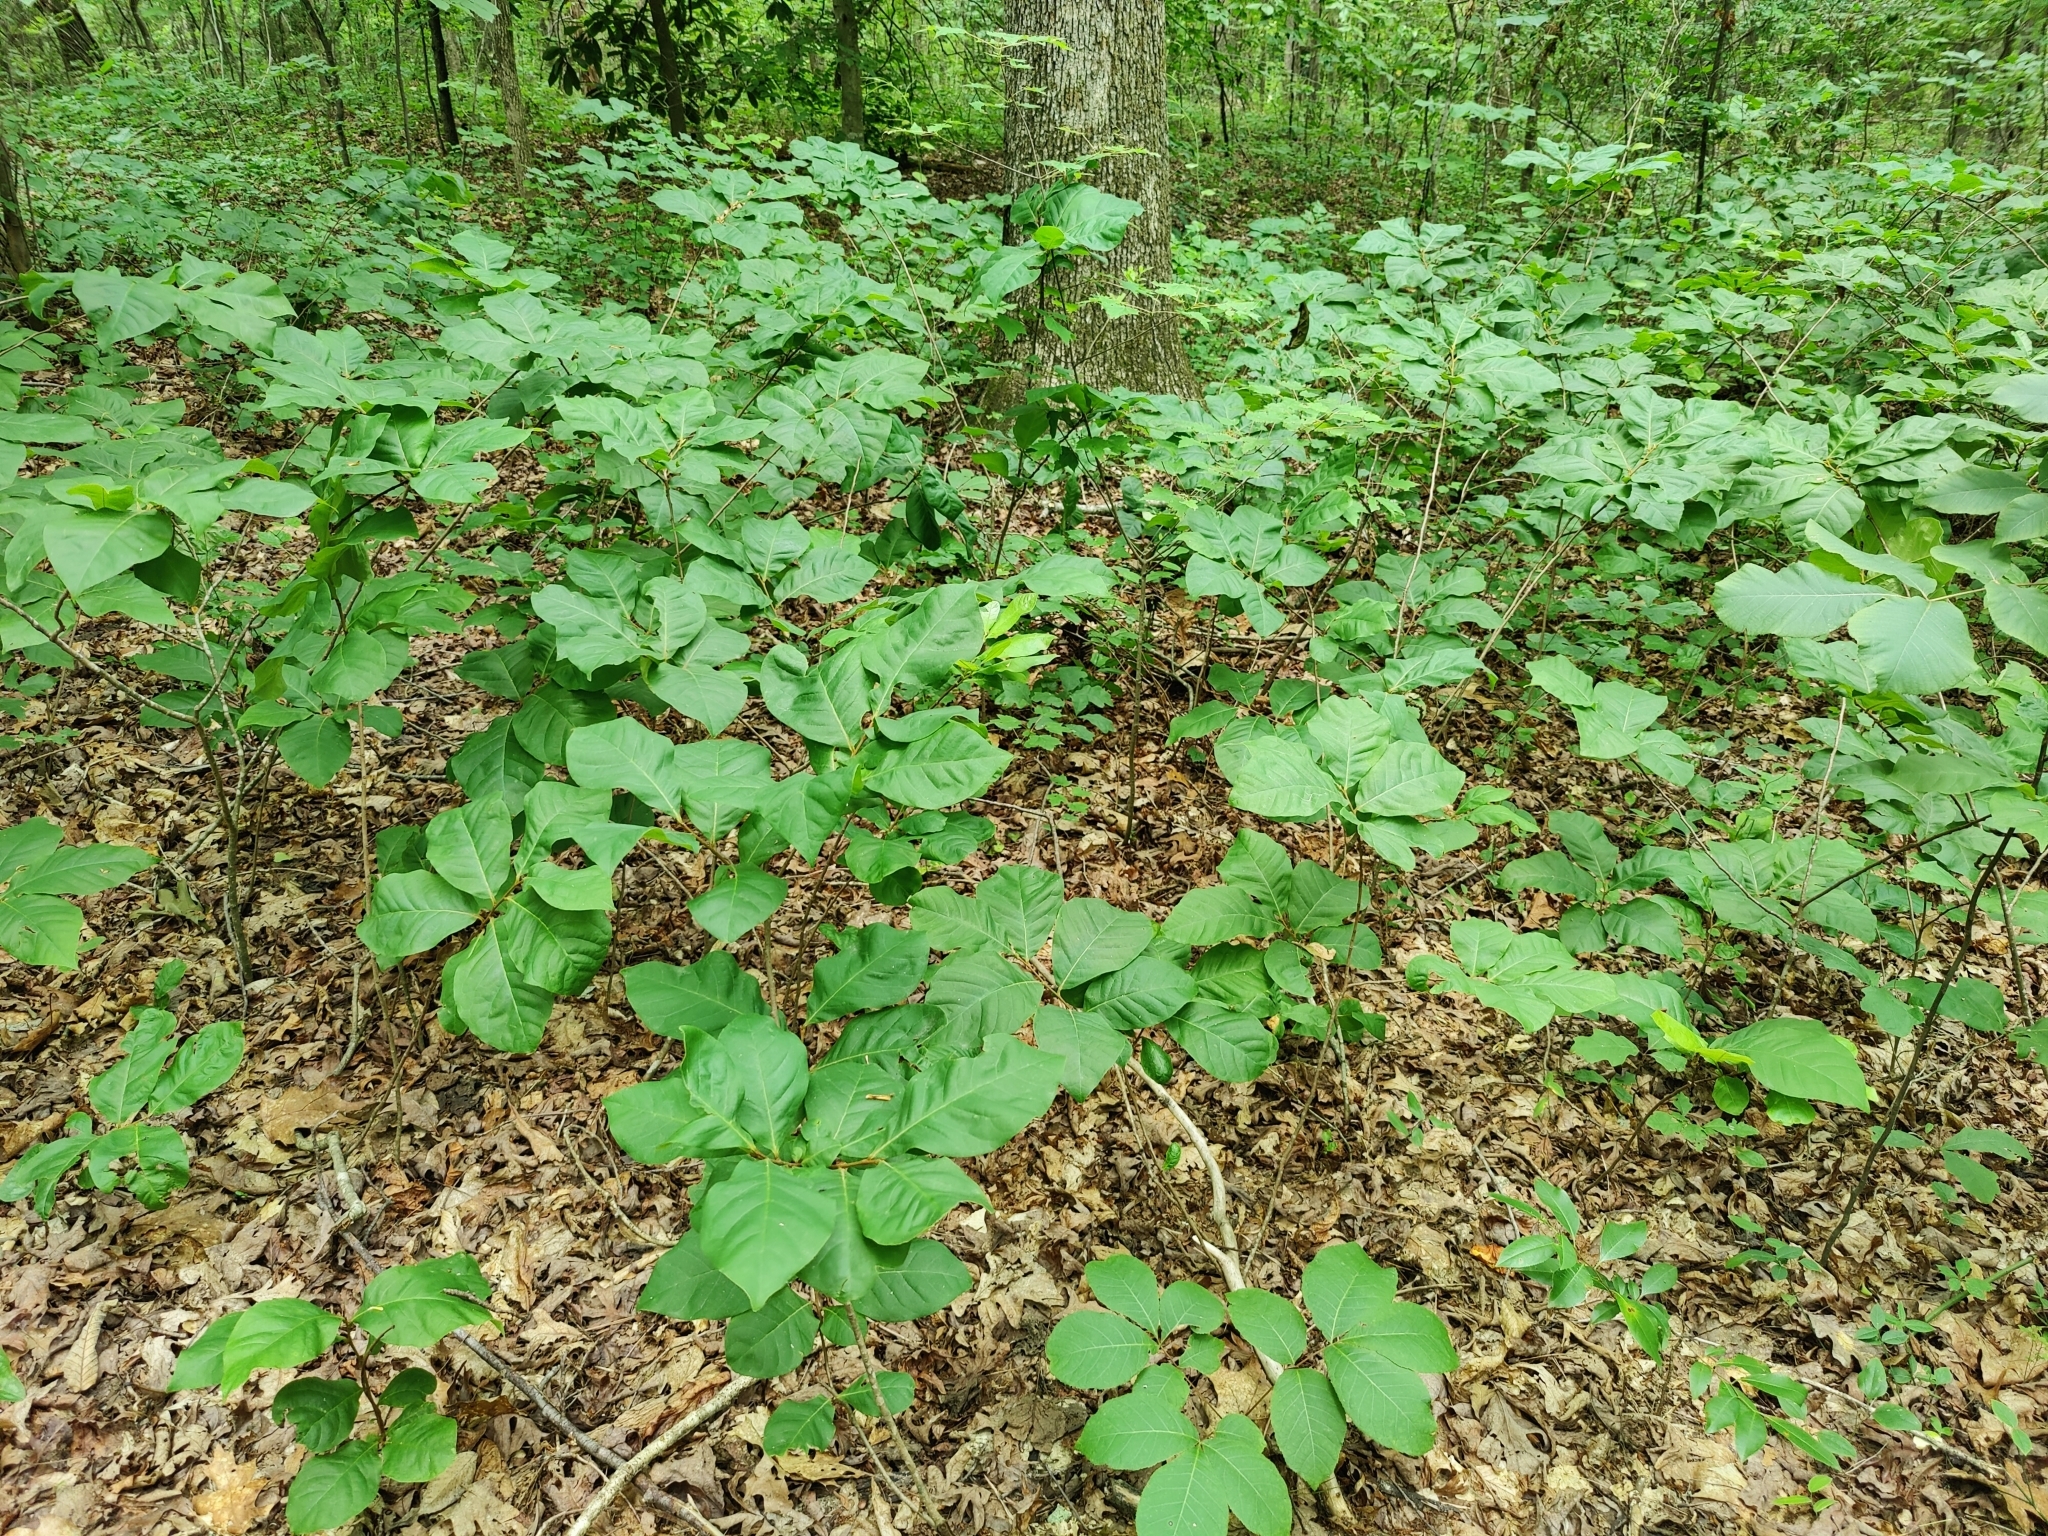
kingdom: Plantae
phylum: Tracheophyta
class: Magnoliopsida
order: Magnoliales
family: Annonaceae
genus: Asimina
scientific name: Asimina parviflora
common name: Dwarf pawpaw
